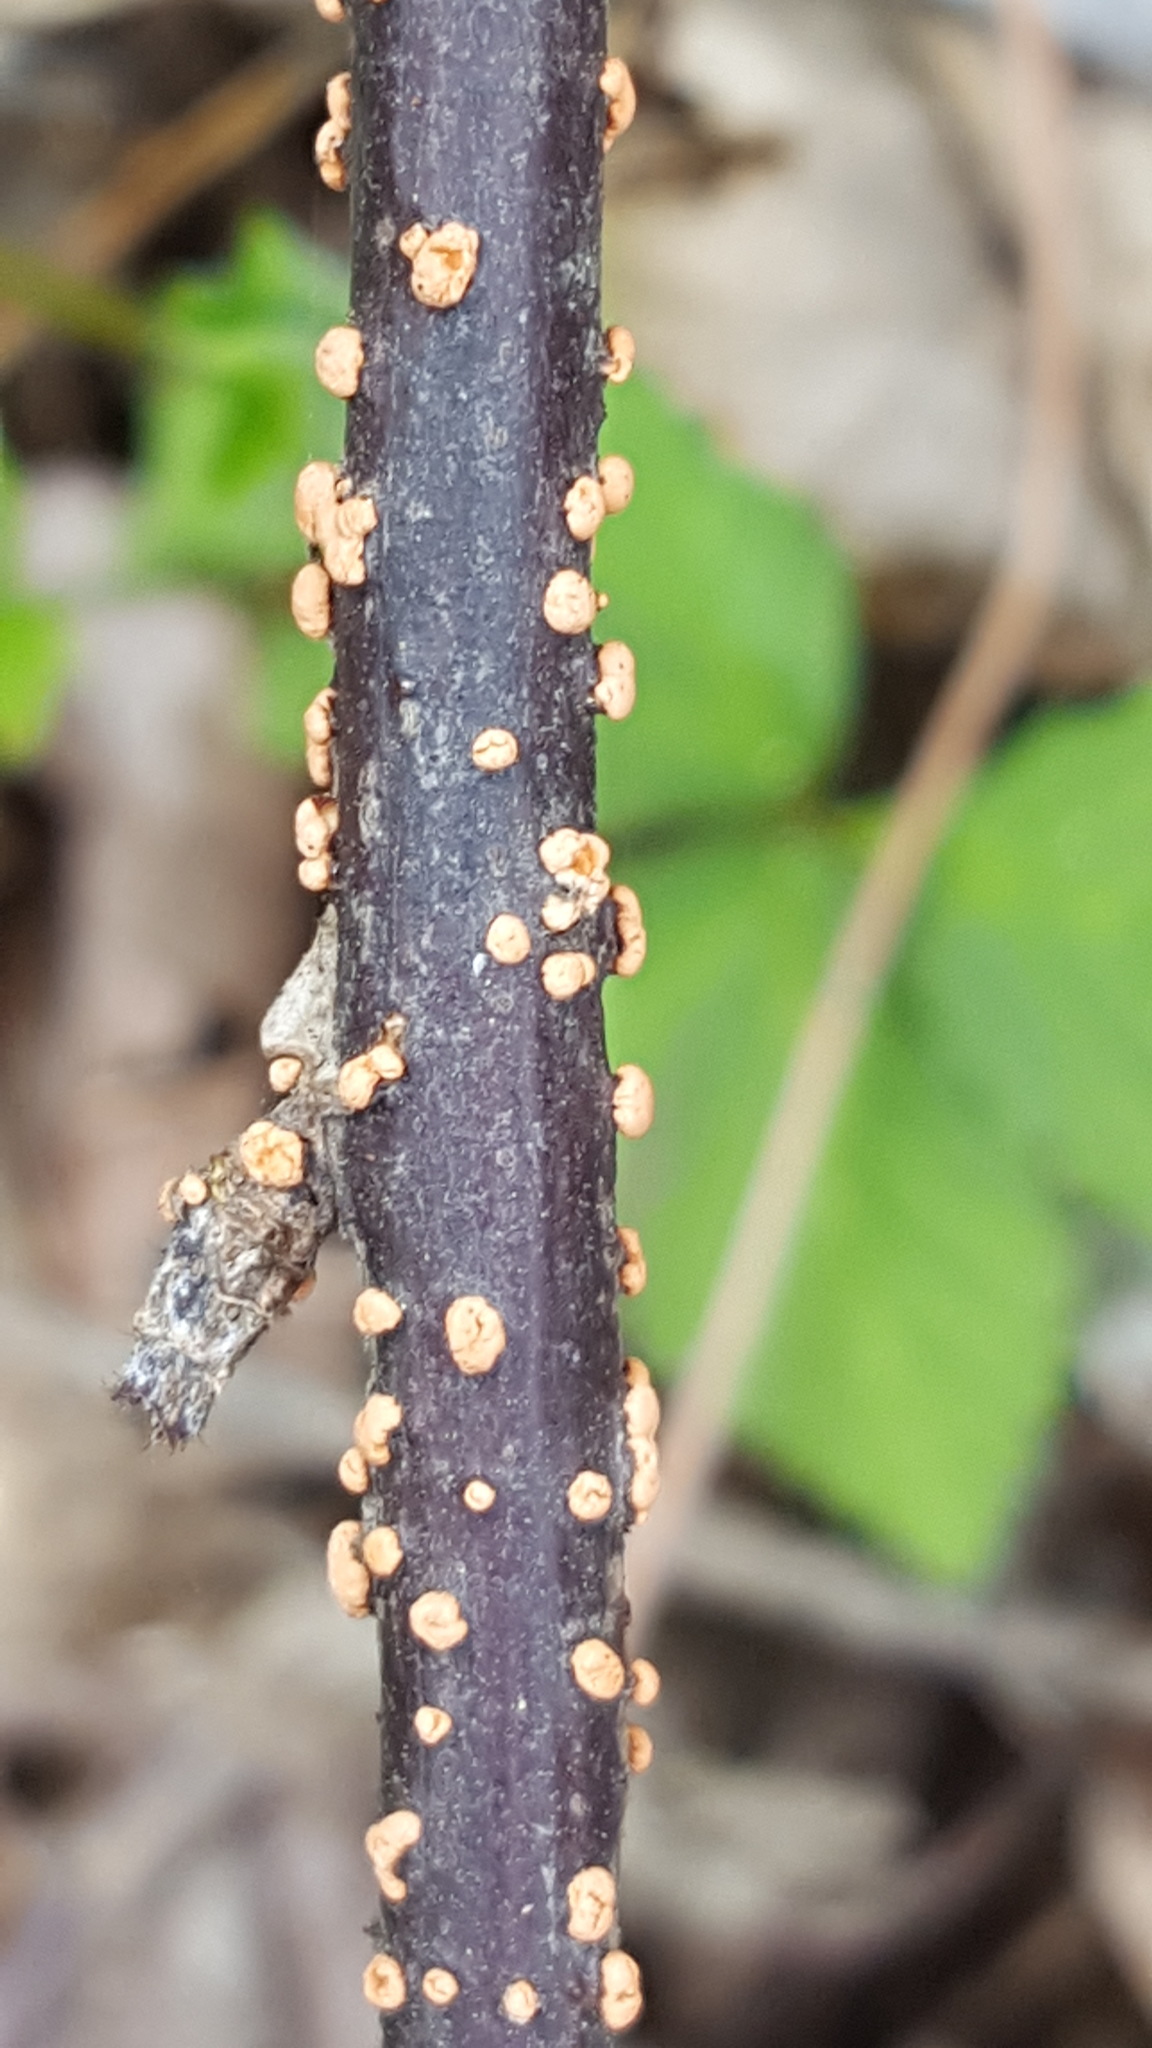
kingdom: Fungi
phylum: Ascomycota
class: Sordariomycetes
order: Hypocreales
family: Nectriaceae
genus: Nectria
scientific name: Nectria cinnabarina
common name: Coral spot
